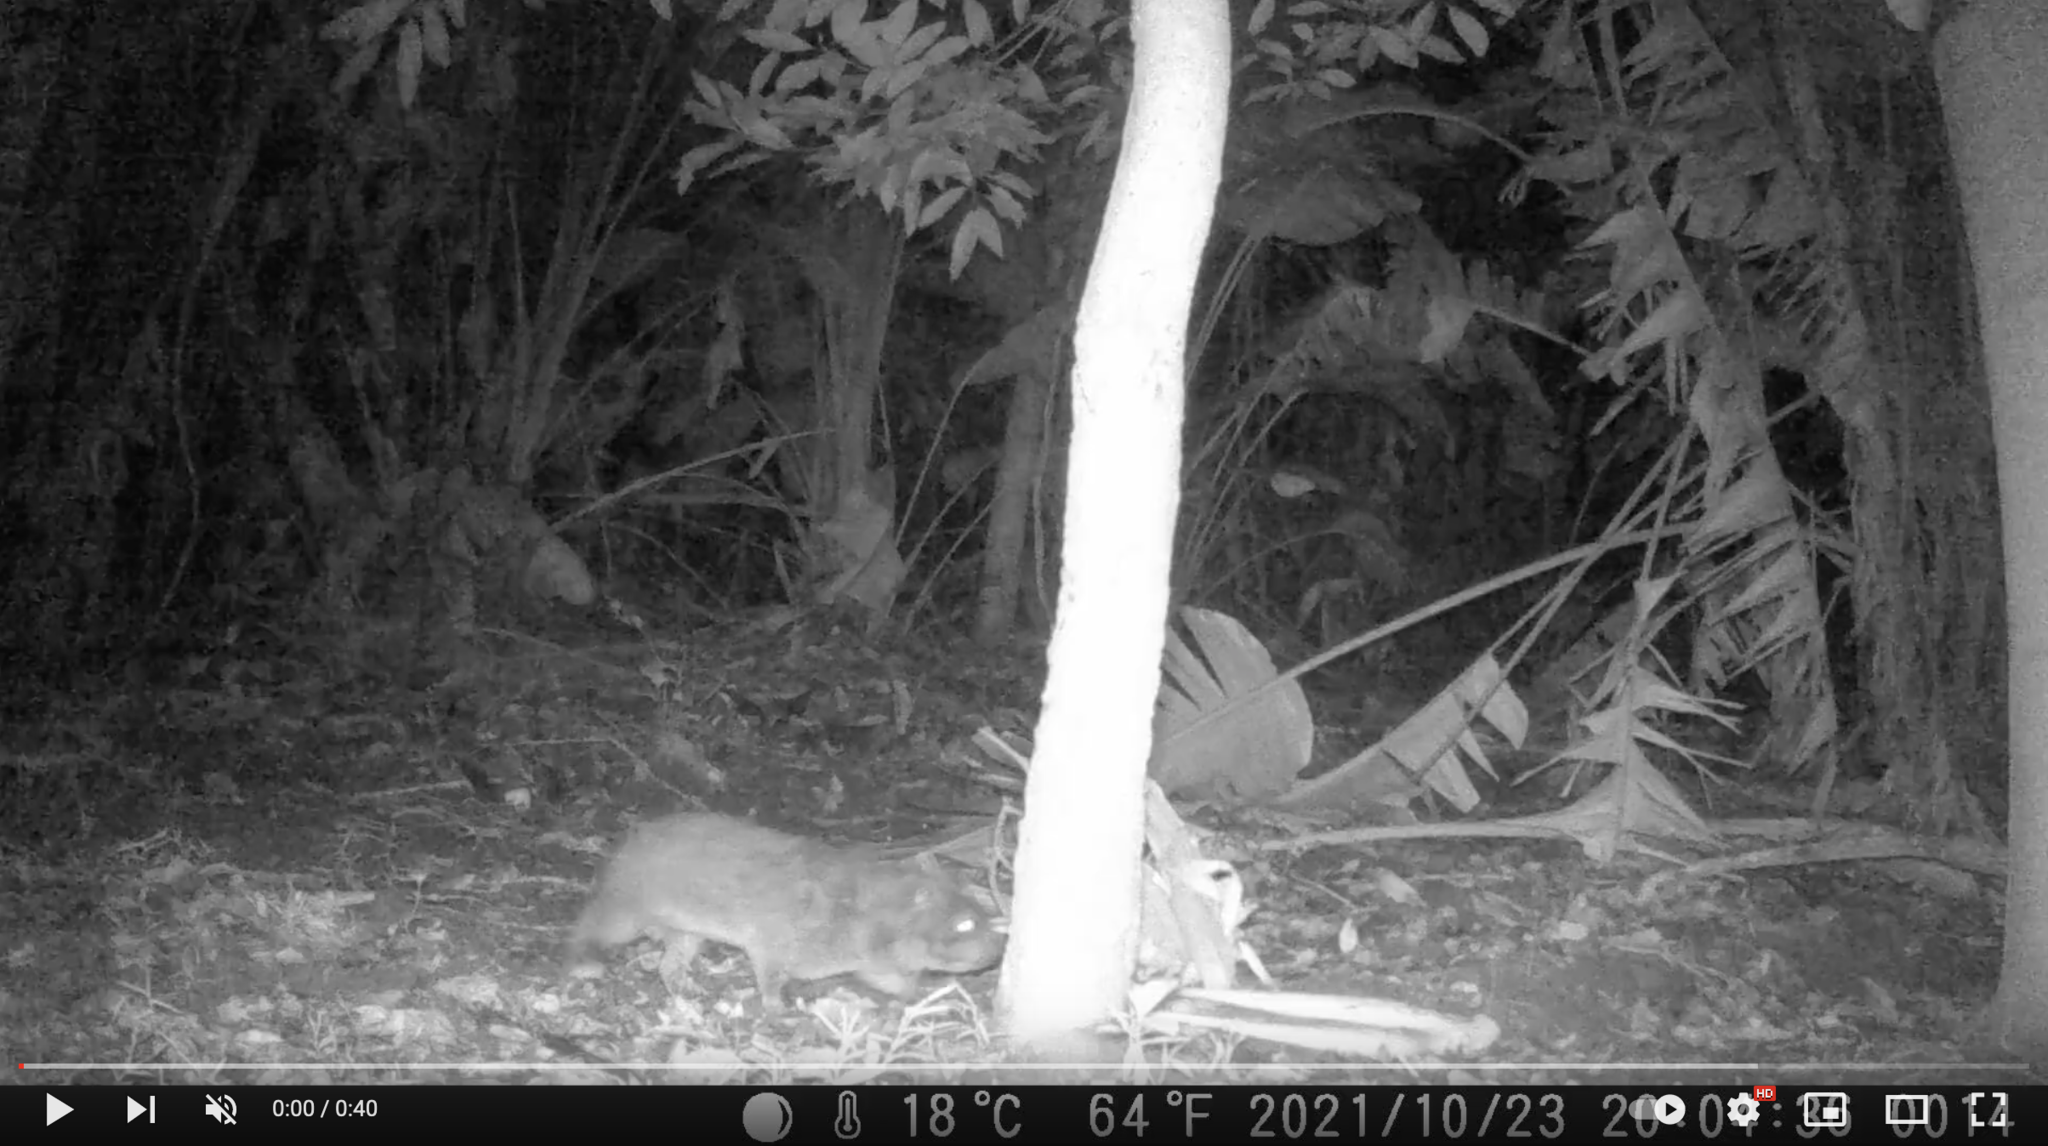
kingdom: Animalia
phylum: Chordata
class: Mammalia
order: Hyracoidea
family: Procaviidae
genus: Procavia
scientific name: Procavia capensis
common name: Rock hyrax
